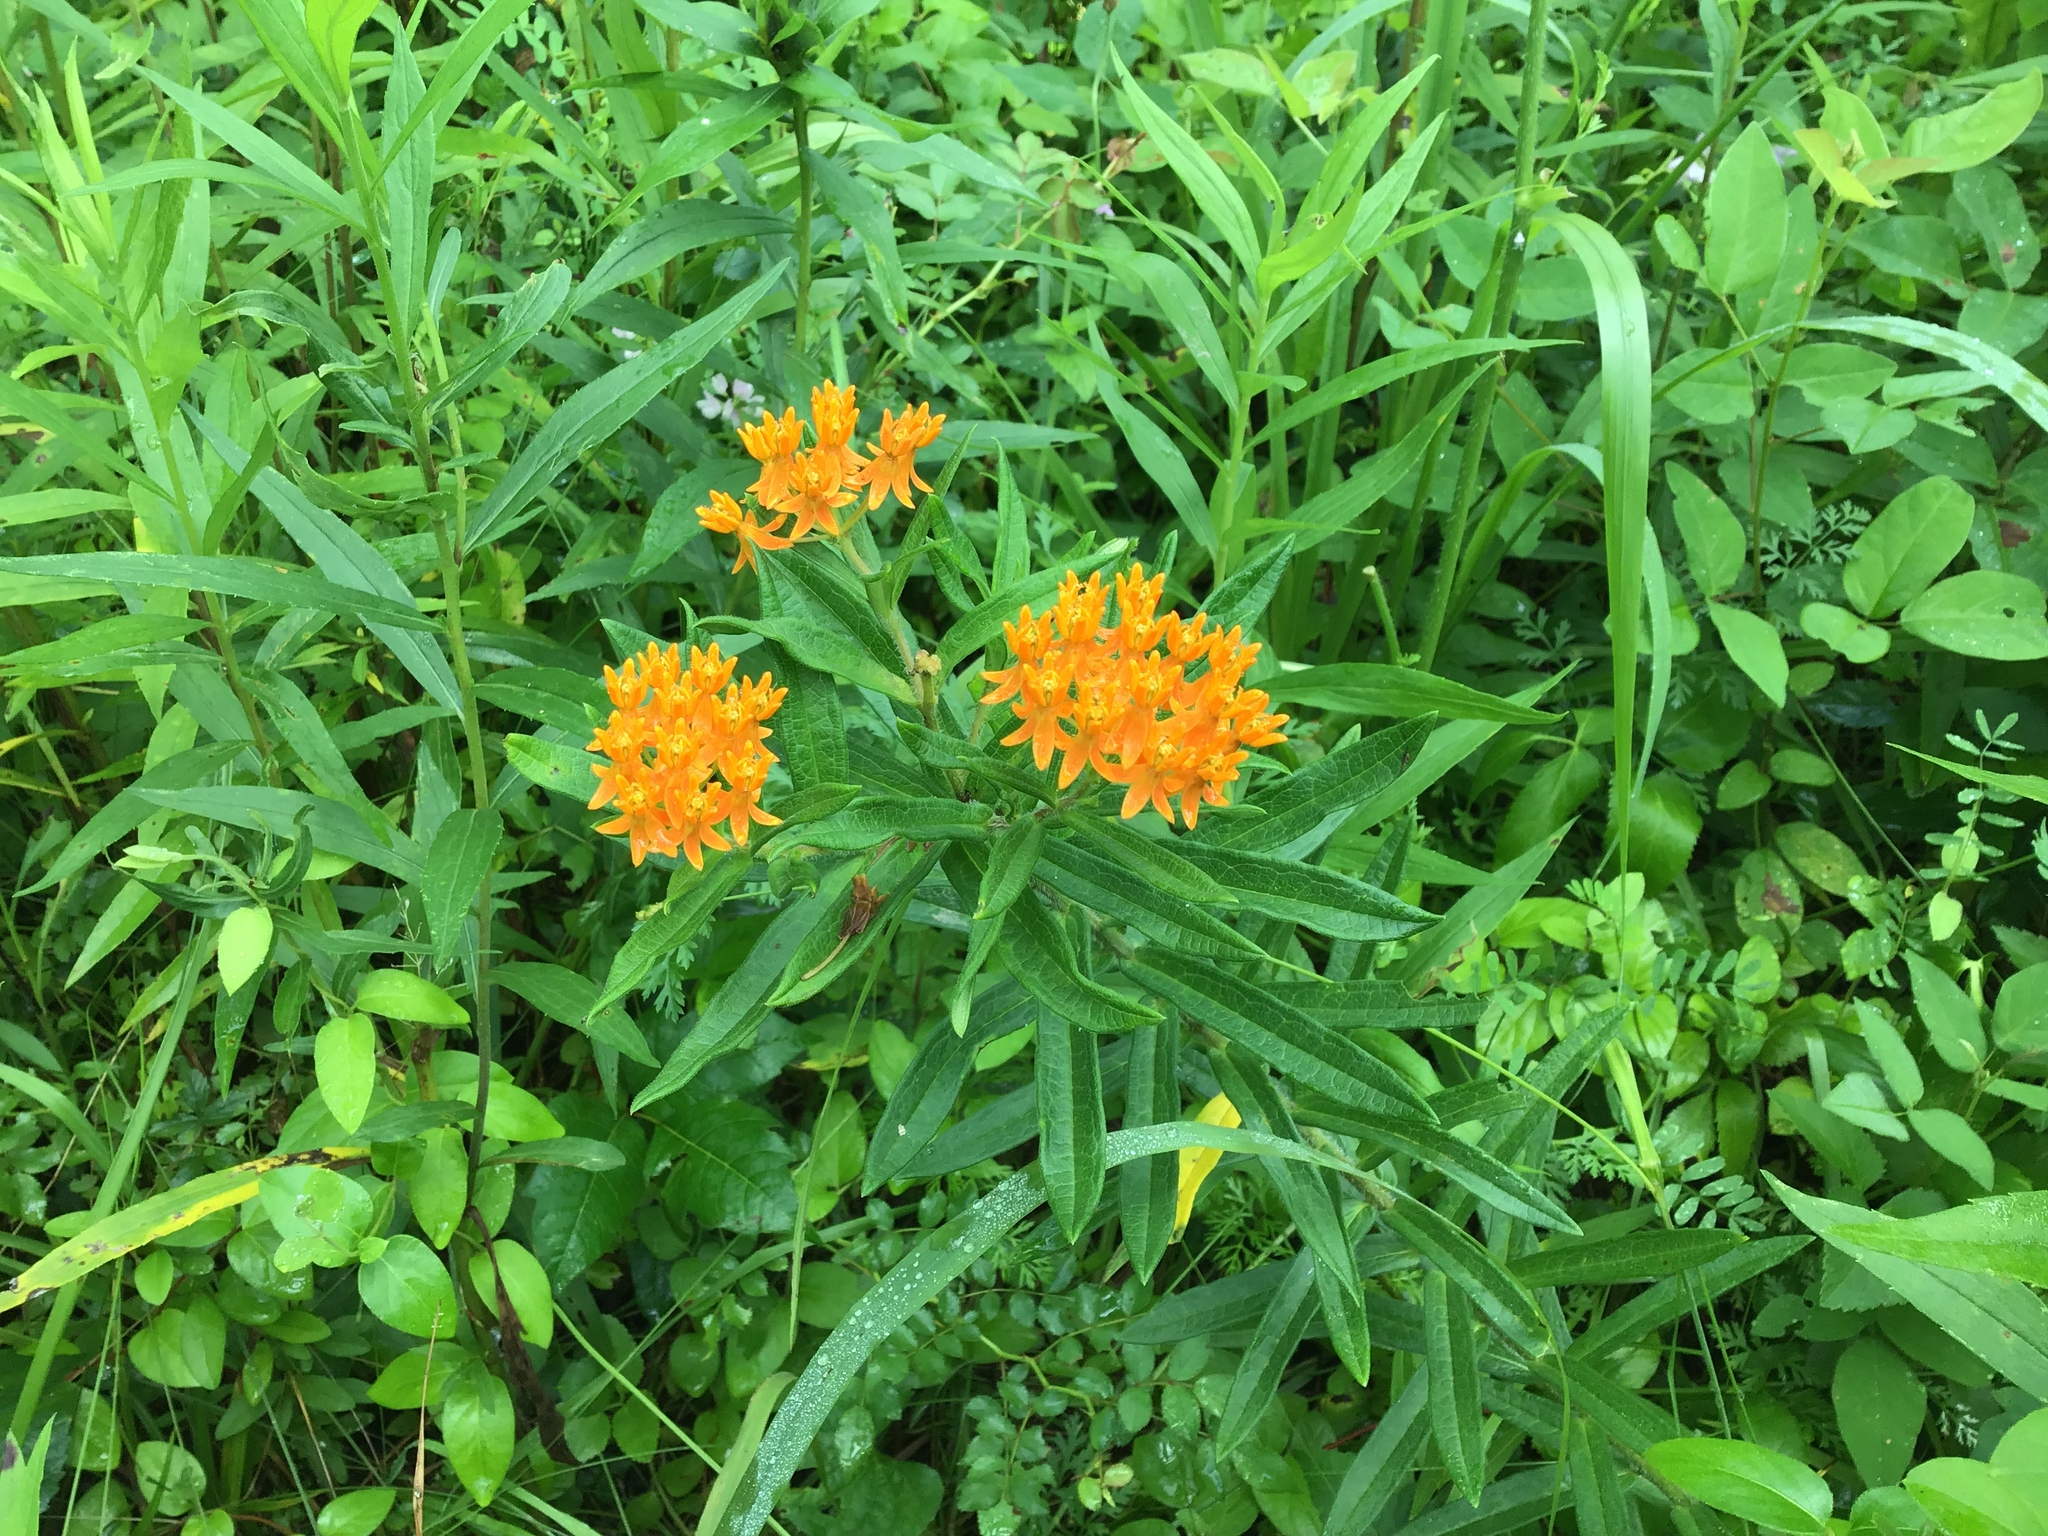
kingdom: Plantae
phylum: Tracheophyta
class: Magnoliopsida
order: Gentianales
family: Apocynaceae
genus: Asclepias
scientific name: Asclepias tuberosa
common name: Butterfly milkweed
